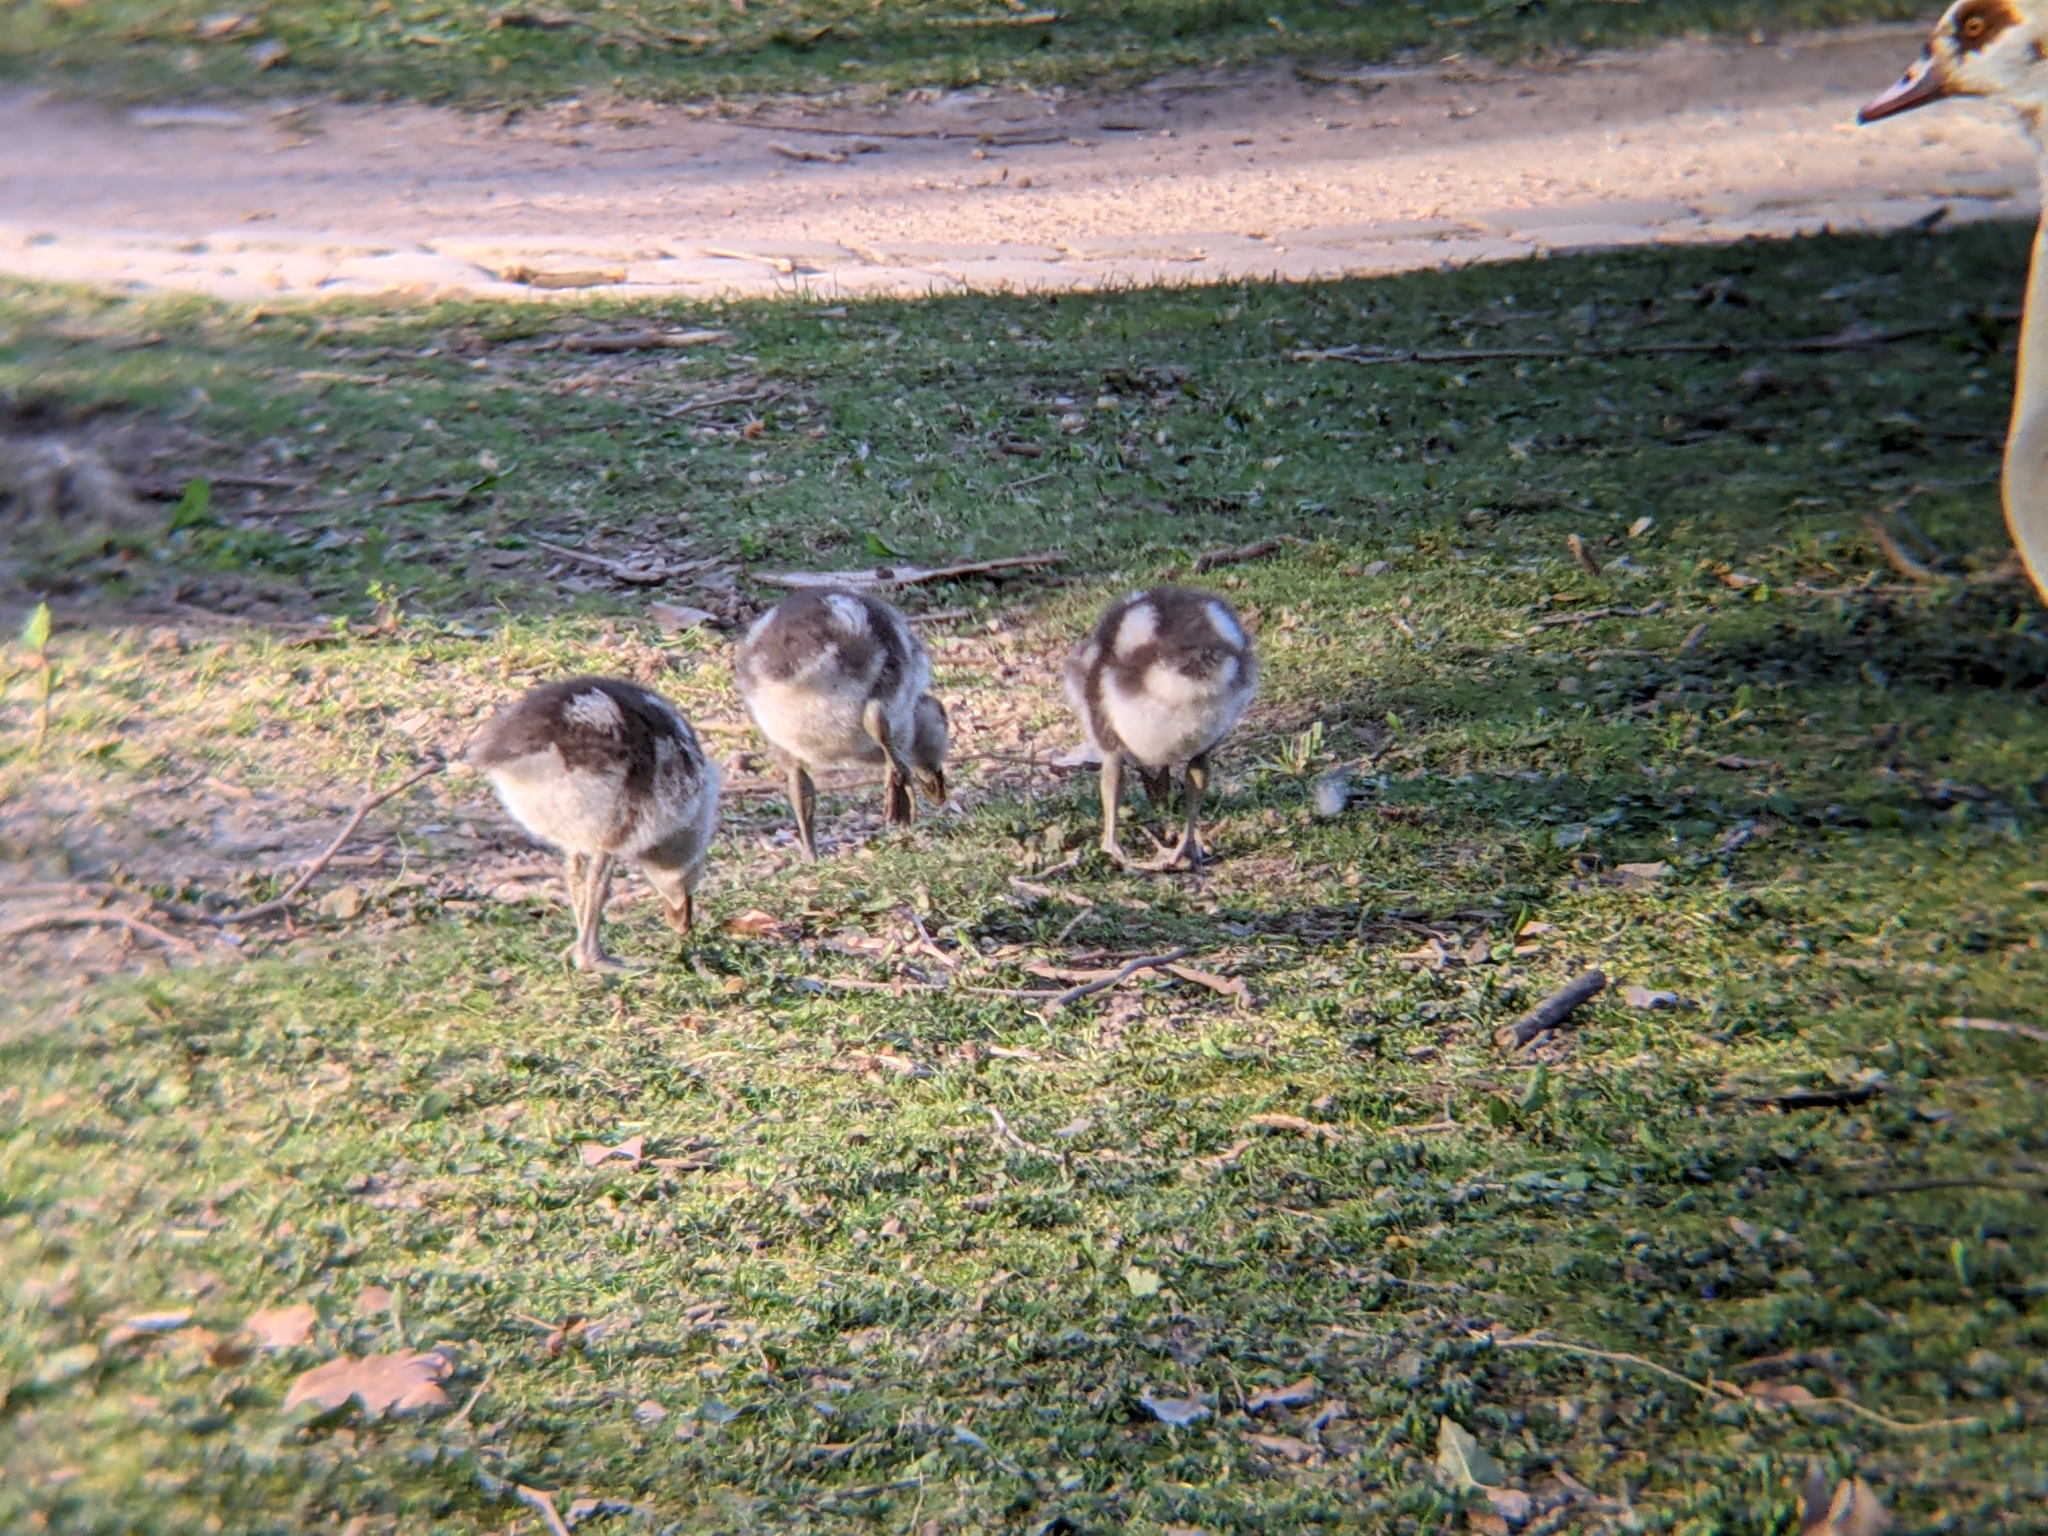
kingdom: Animalia
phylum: Chordata
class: Aves
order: Anseriformes
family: Anatidae
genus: Alopochen
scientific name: Alopochen aegyptiaca
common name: Egyptian goose
